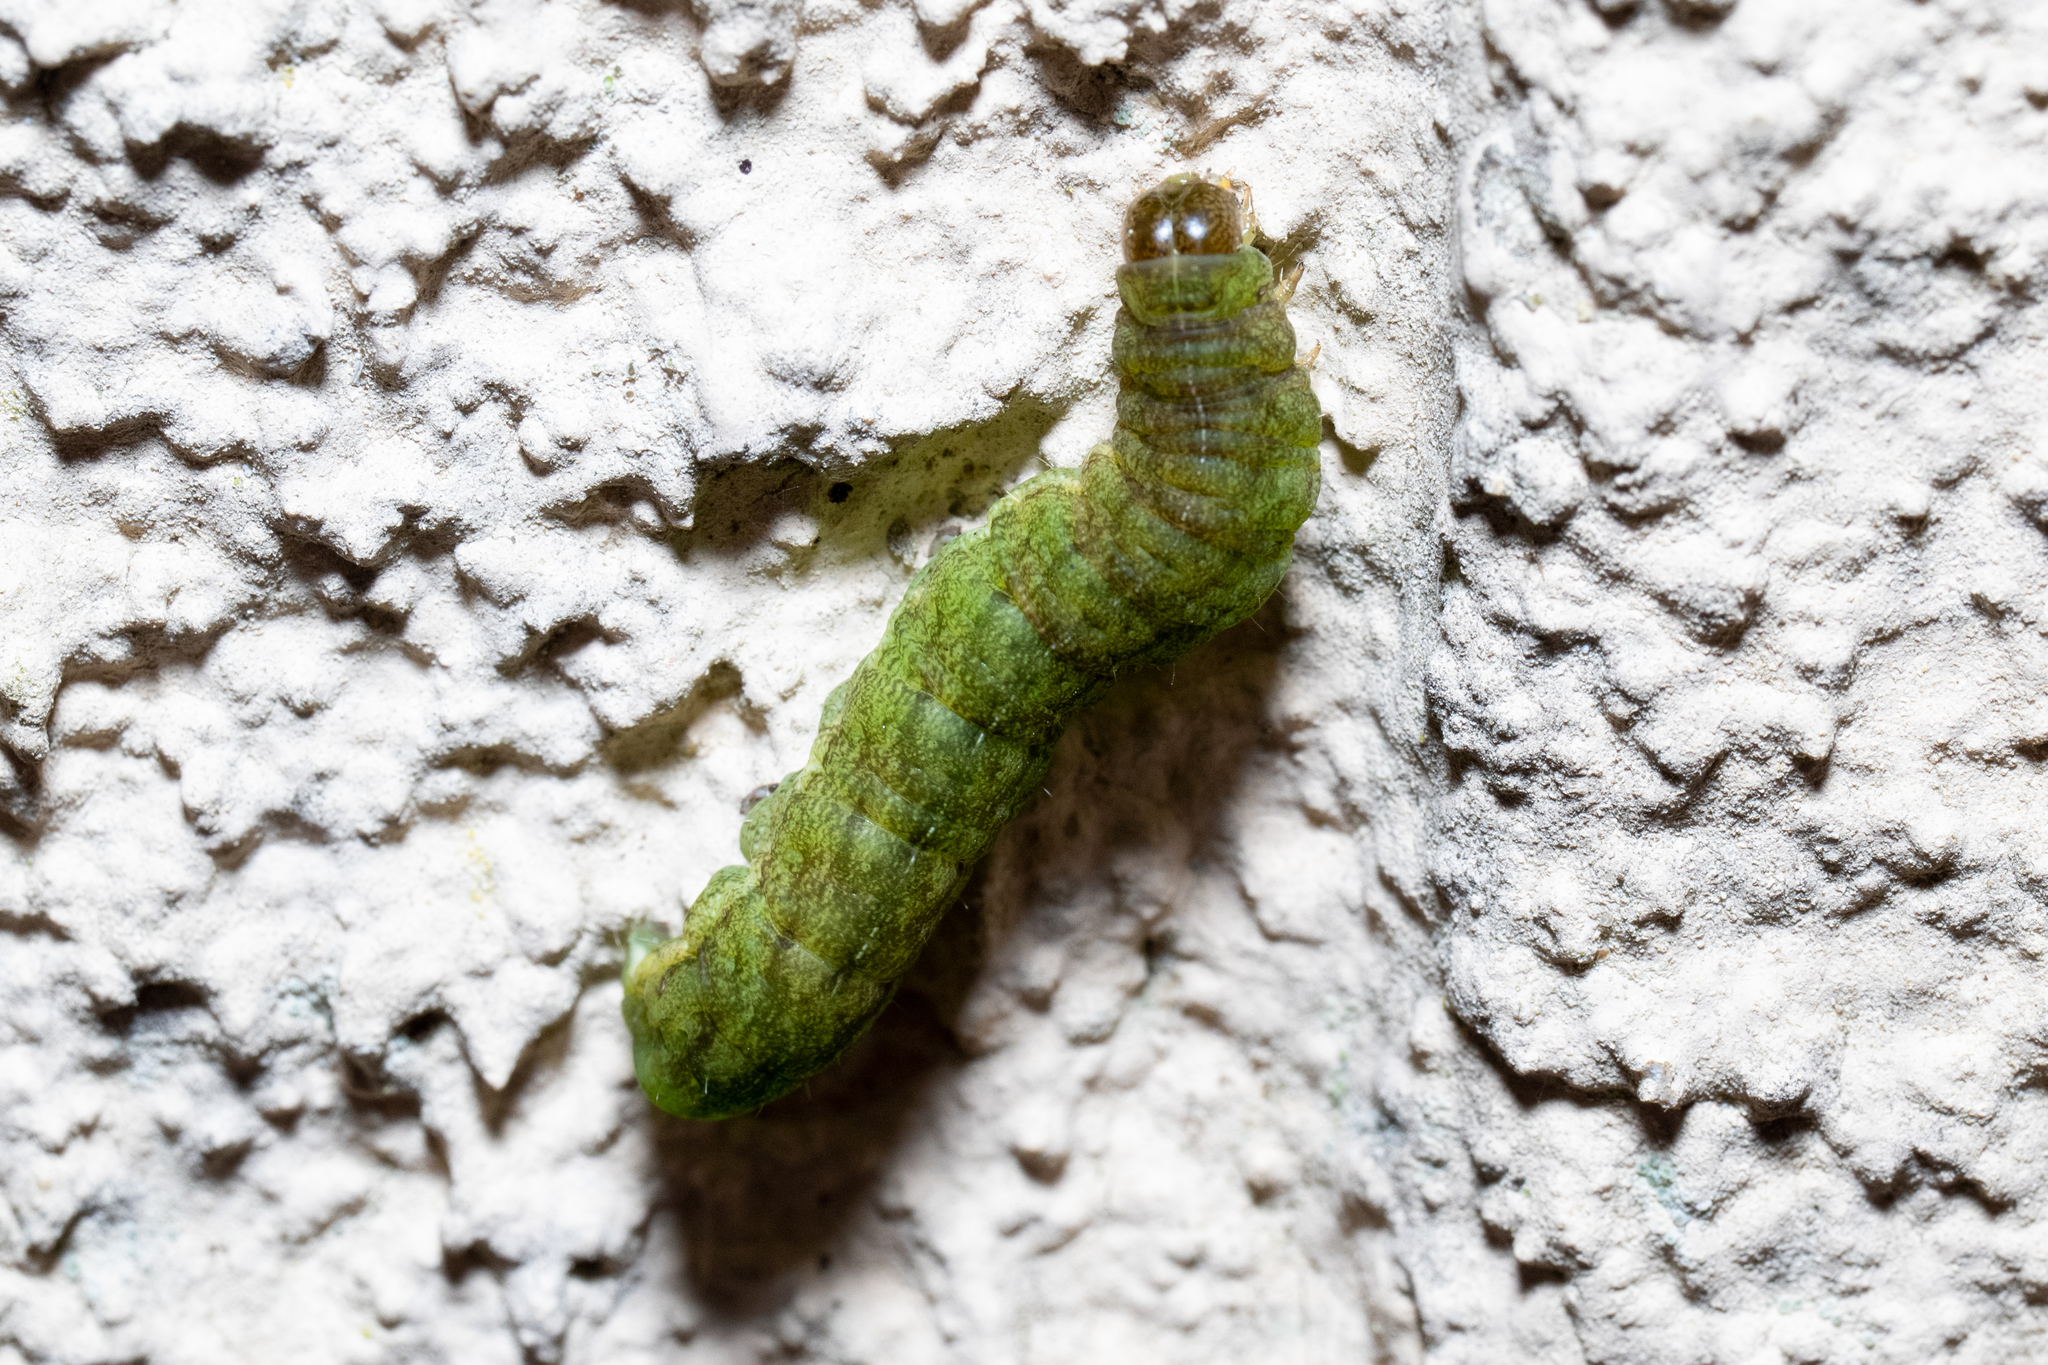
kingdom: Animalia
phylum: Arthropoda
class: Insecta
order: Lepidoptera
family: Noctuidae
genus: Phlogophora
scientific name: Phlogophora meticulosa
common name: Angle shades
